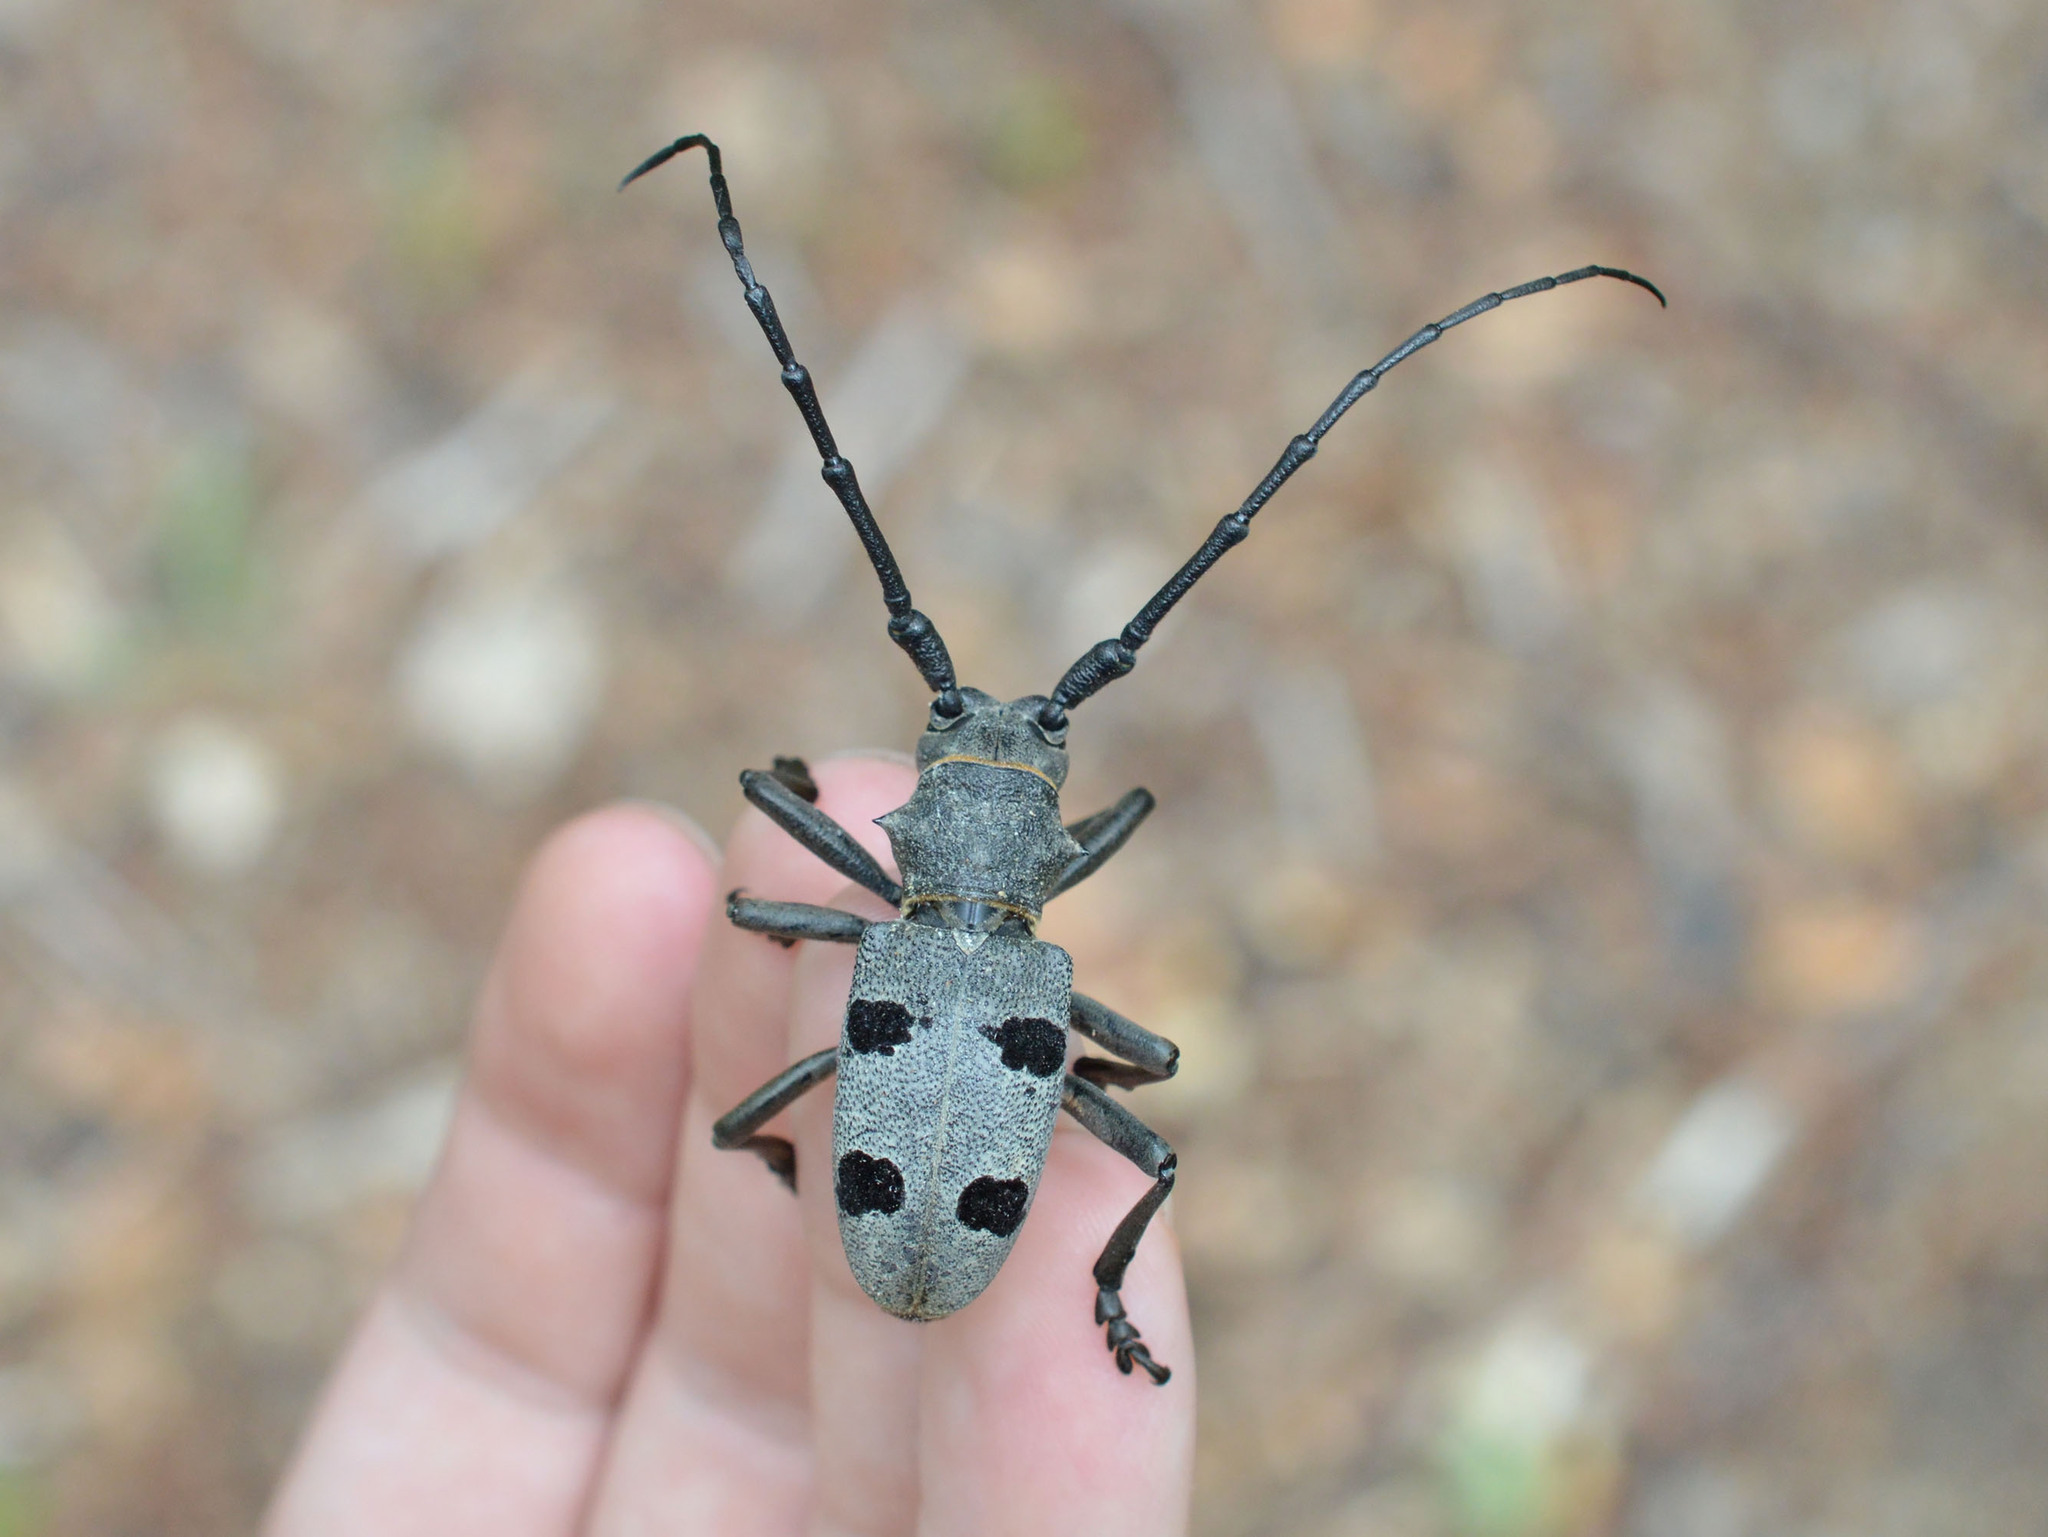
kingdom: Animalia
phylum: Arthropoda
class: Insecta
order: Coleoptera
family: Cerambycidae
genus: Morimus
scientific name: Morimus funereus
